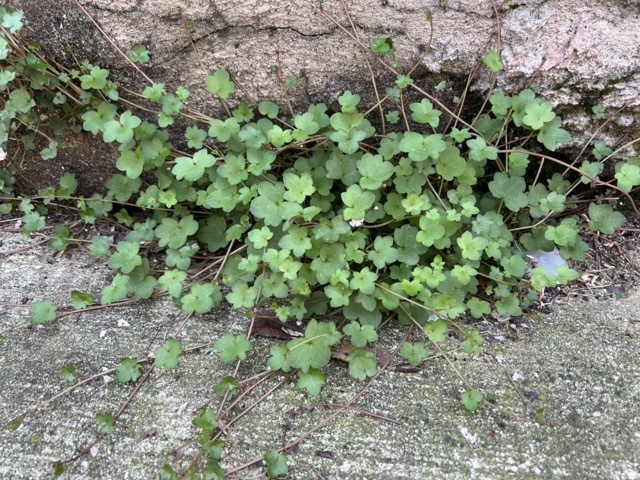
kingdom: Plantae
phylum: Tracheophyta
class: Magnoliopsida
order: Lamiales
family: Plantaginaceae
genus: Cymbalaria
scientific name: Cymbalaria muralis
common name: Ivy-leaved toadflax
